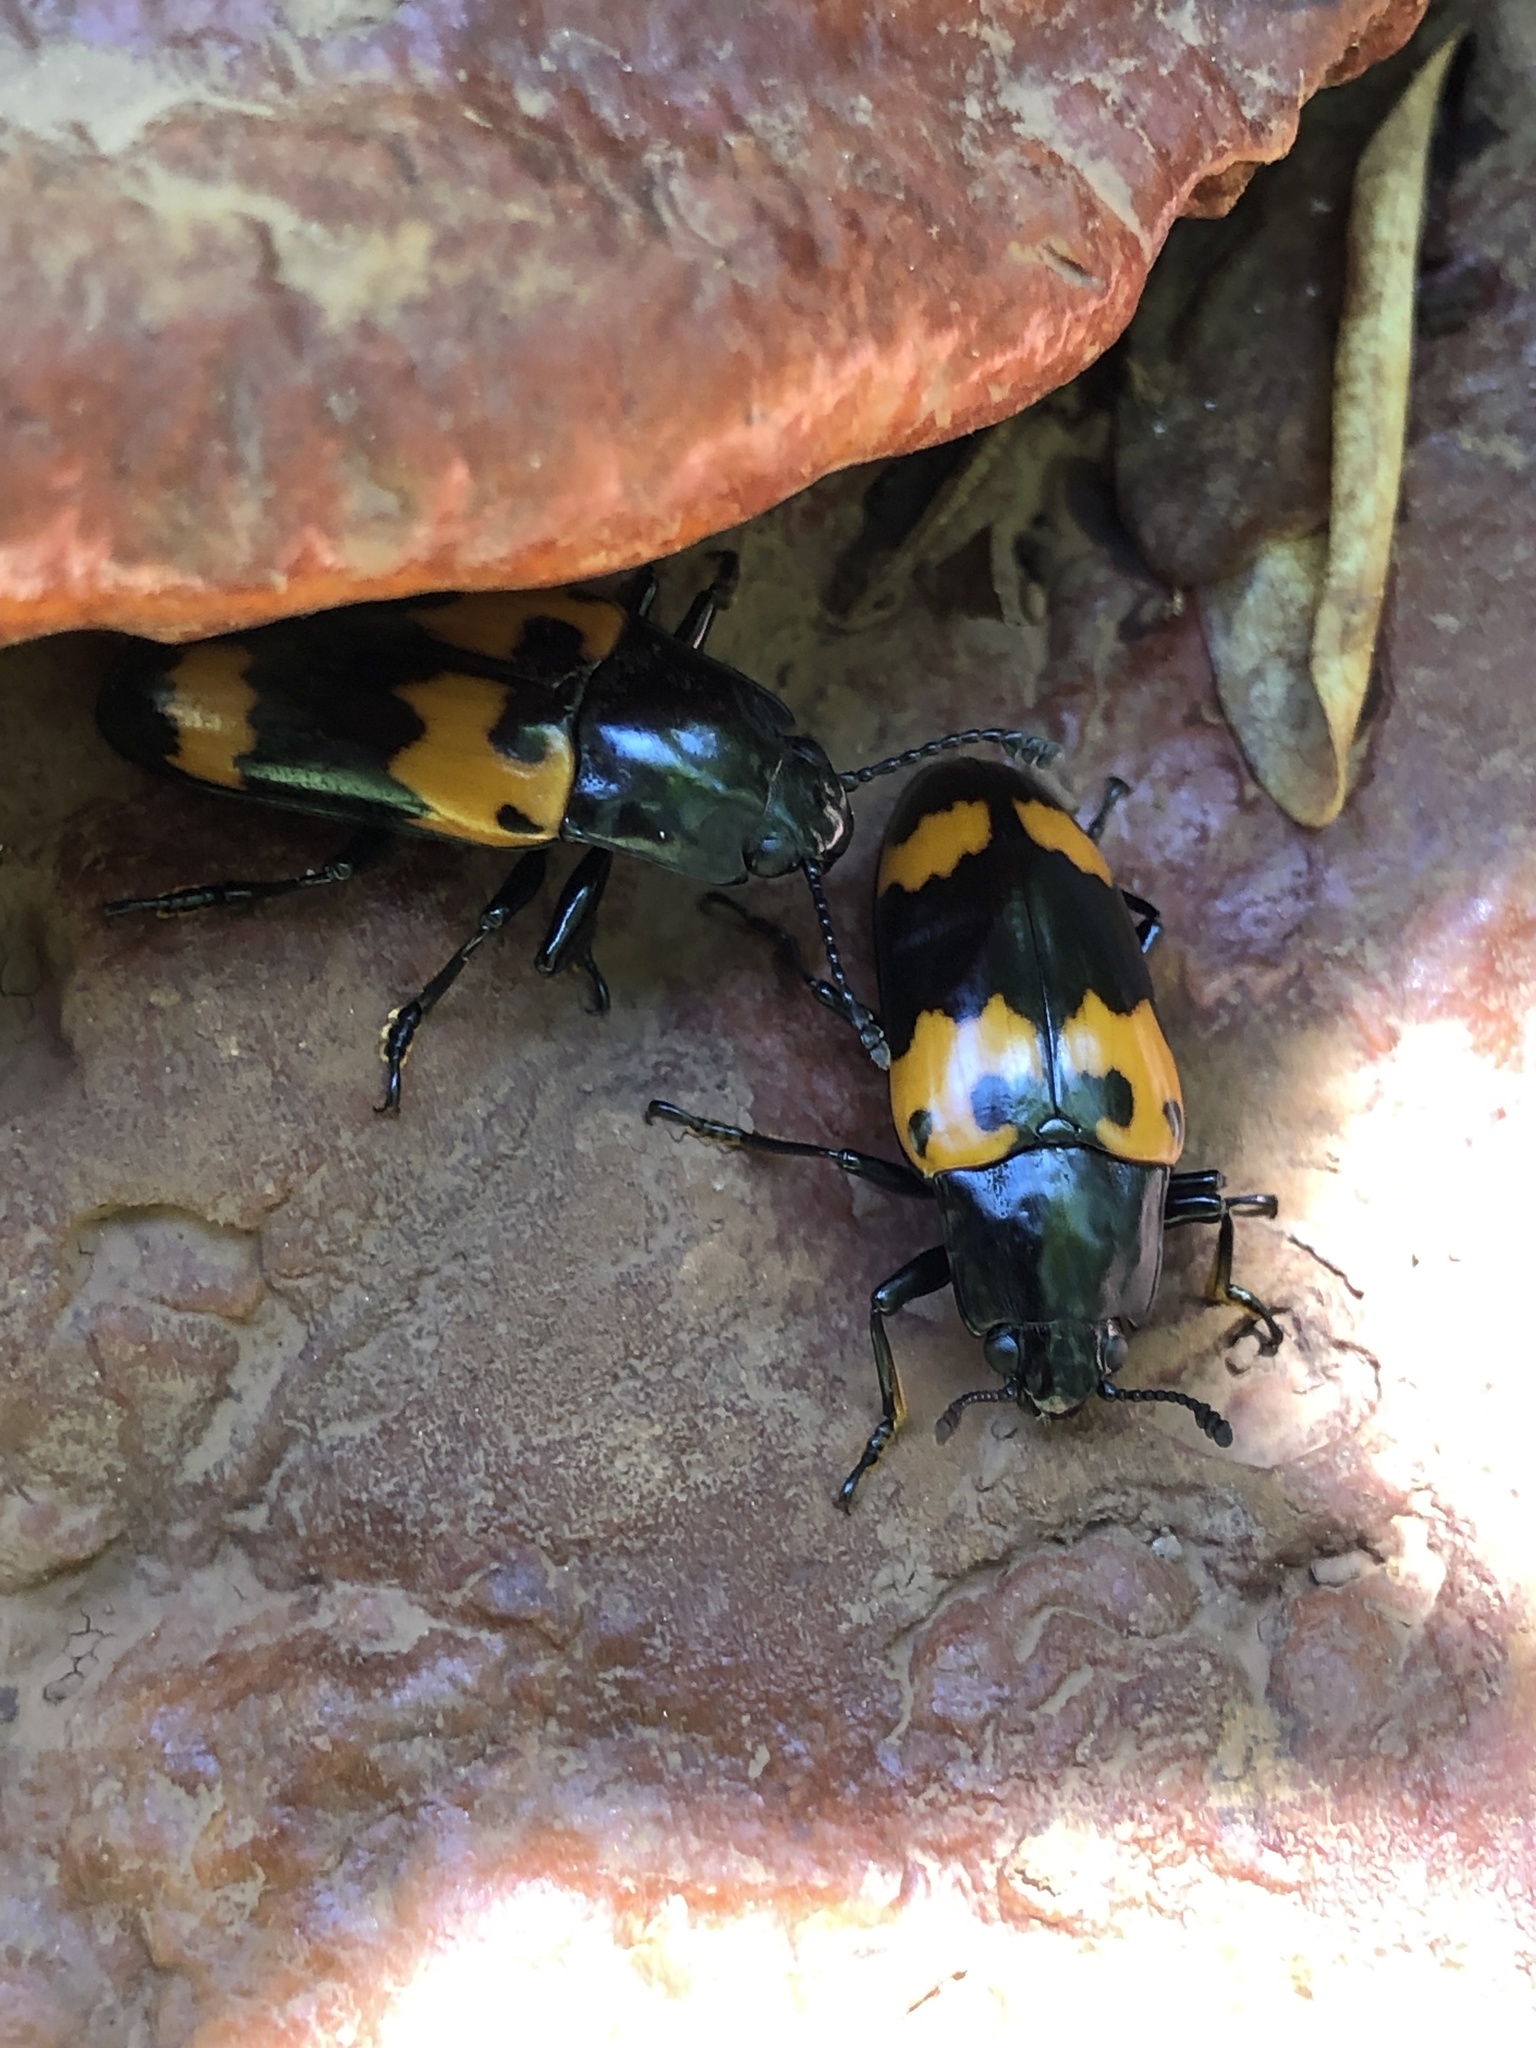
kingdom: Animalia
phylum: Arthropoda
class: Insecta
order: Coleoptera
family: Erotylidae
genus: Megalodacne
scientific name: Megalodacne heros
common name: Pleasing fungus beetle
